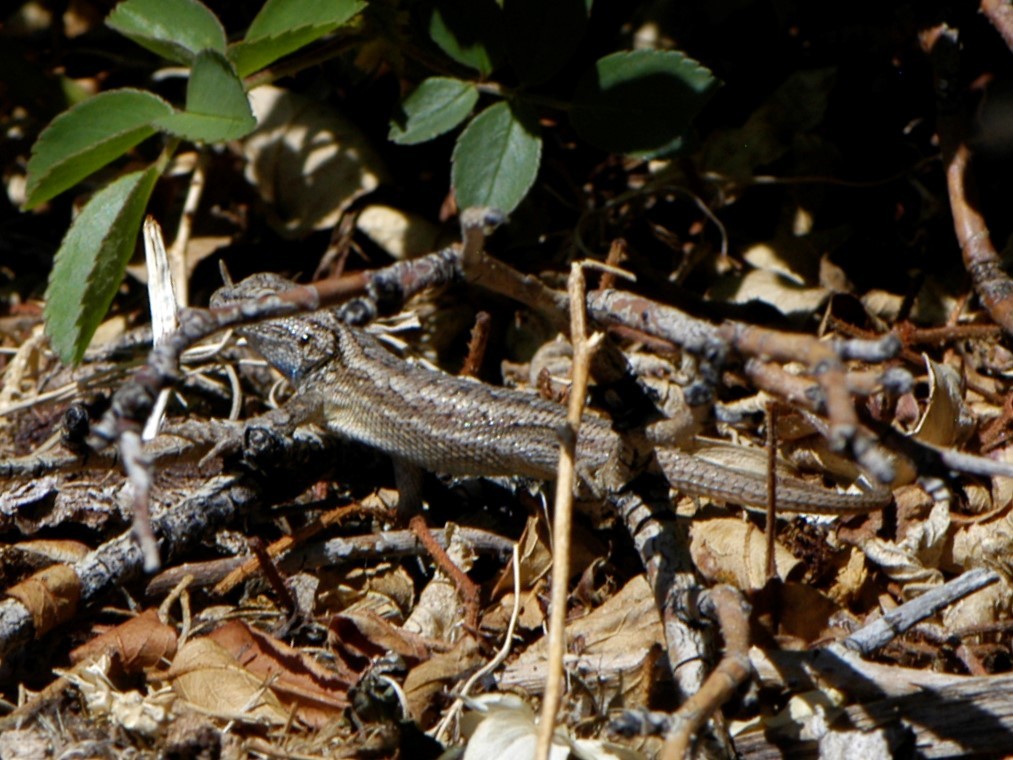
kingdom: Animalia
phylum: Chordata
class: Squamata
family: Phrynosomatidae
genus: Sceloporus
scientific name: Sceloporus cowlesi
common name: White sands prairie lizard
